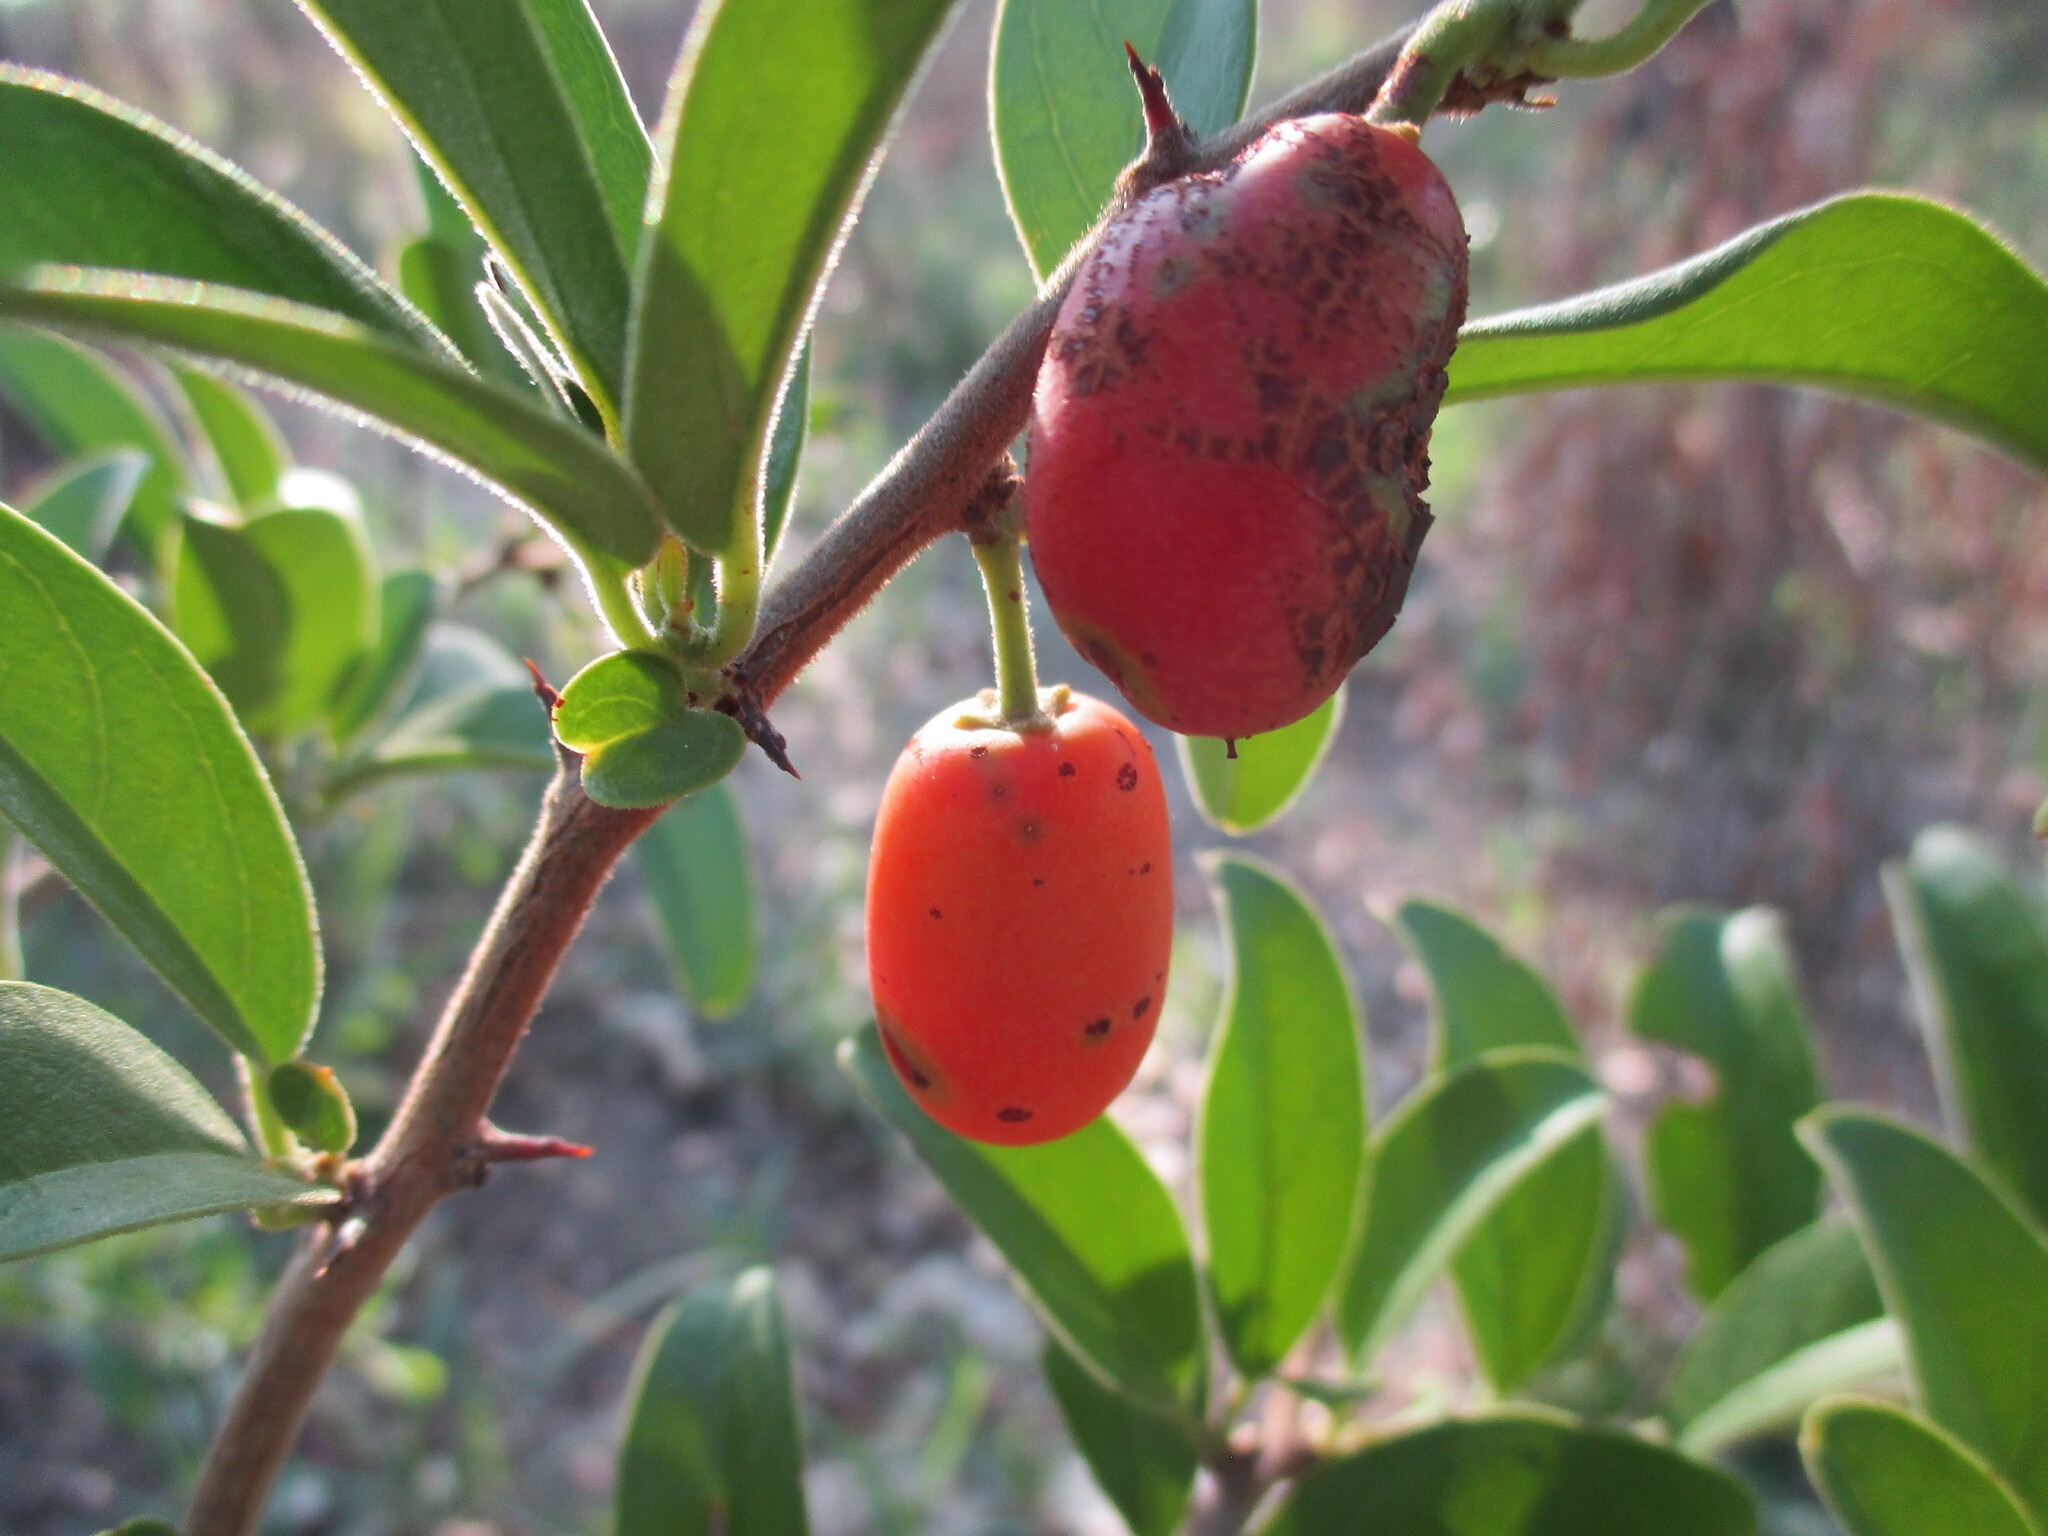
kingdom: Plantae
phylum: Tracheophyta
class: Magnoliopsida
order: Santalales
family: Ximeniaceae
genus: Ximenia
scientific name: Ximenia caffra
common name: Large sourplum
